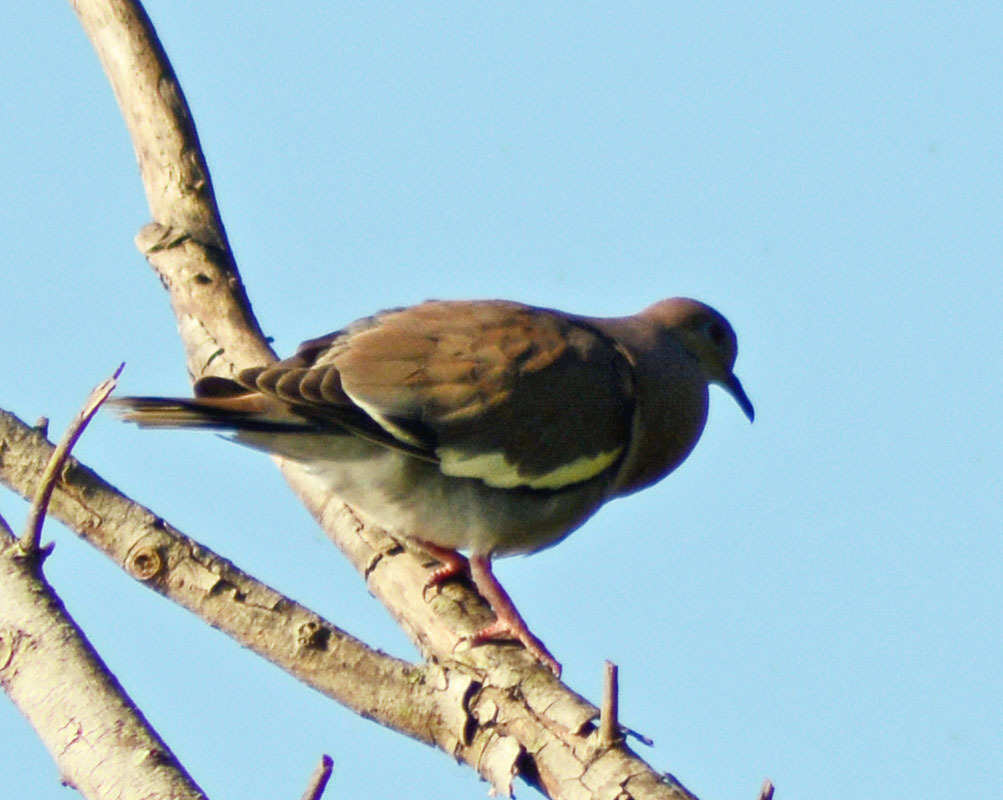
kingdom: Animalia
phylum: Chordata
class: Aves
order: Columbiformes
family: Columbidae
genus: Zenaida
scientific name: Zenaida asiatica
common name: White-winged dove
